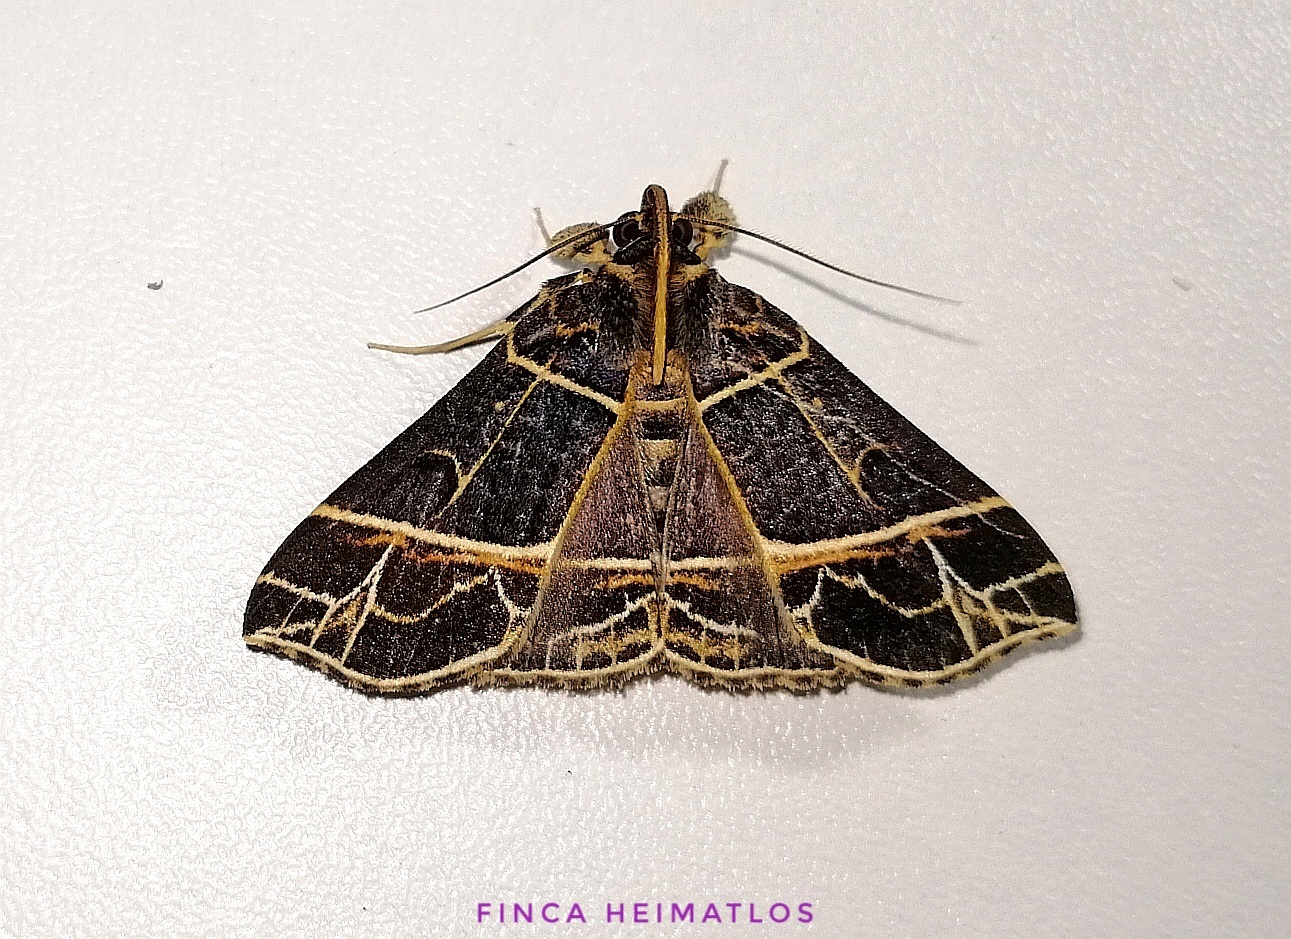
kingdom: Animalia
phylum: Arthropoda
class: Insecta
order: Lepidoptera
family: Erebidae
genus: Rejectaria
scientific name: Rejectaria niciasalis
